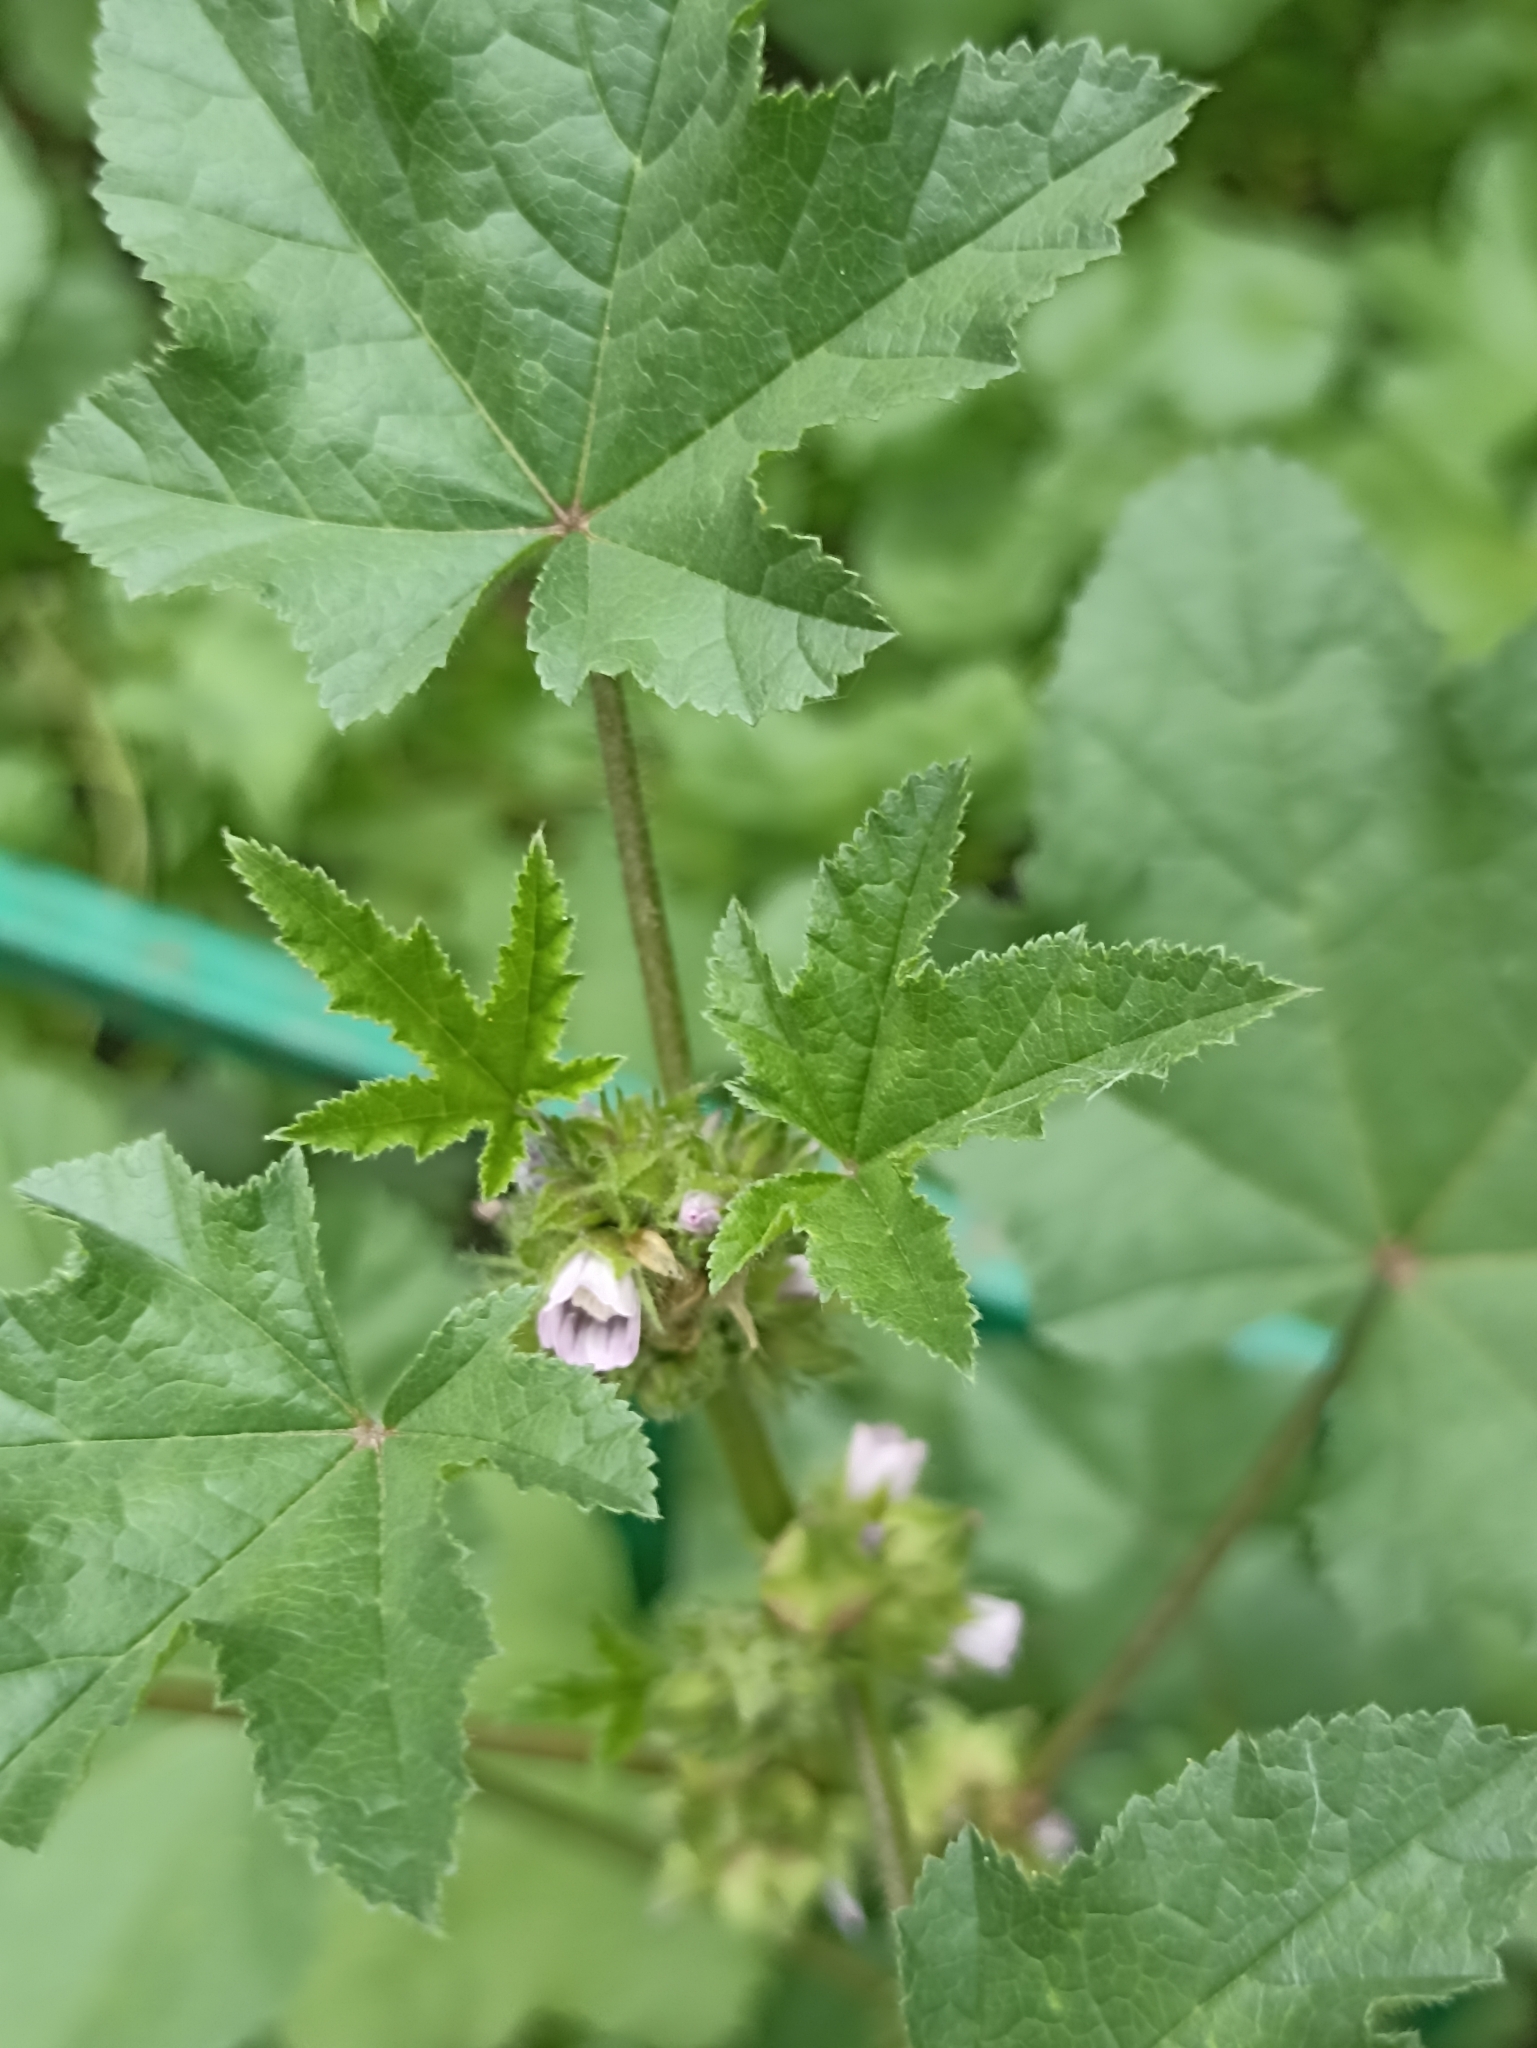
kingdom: Plantae
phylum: Tracheophyta
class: Magnoliopsida
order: Malvales
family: Malvaceae
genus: Malva
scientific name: Malva verticillata
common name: Chinese mallow
